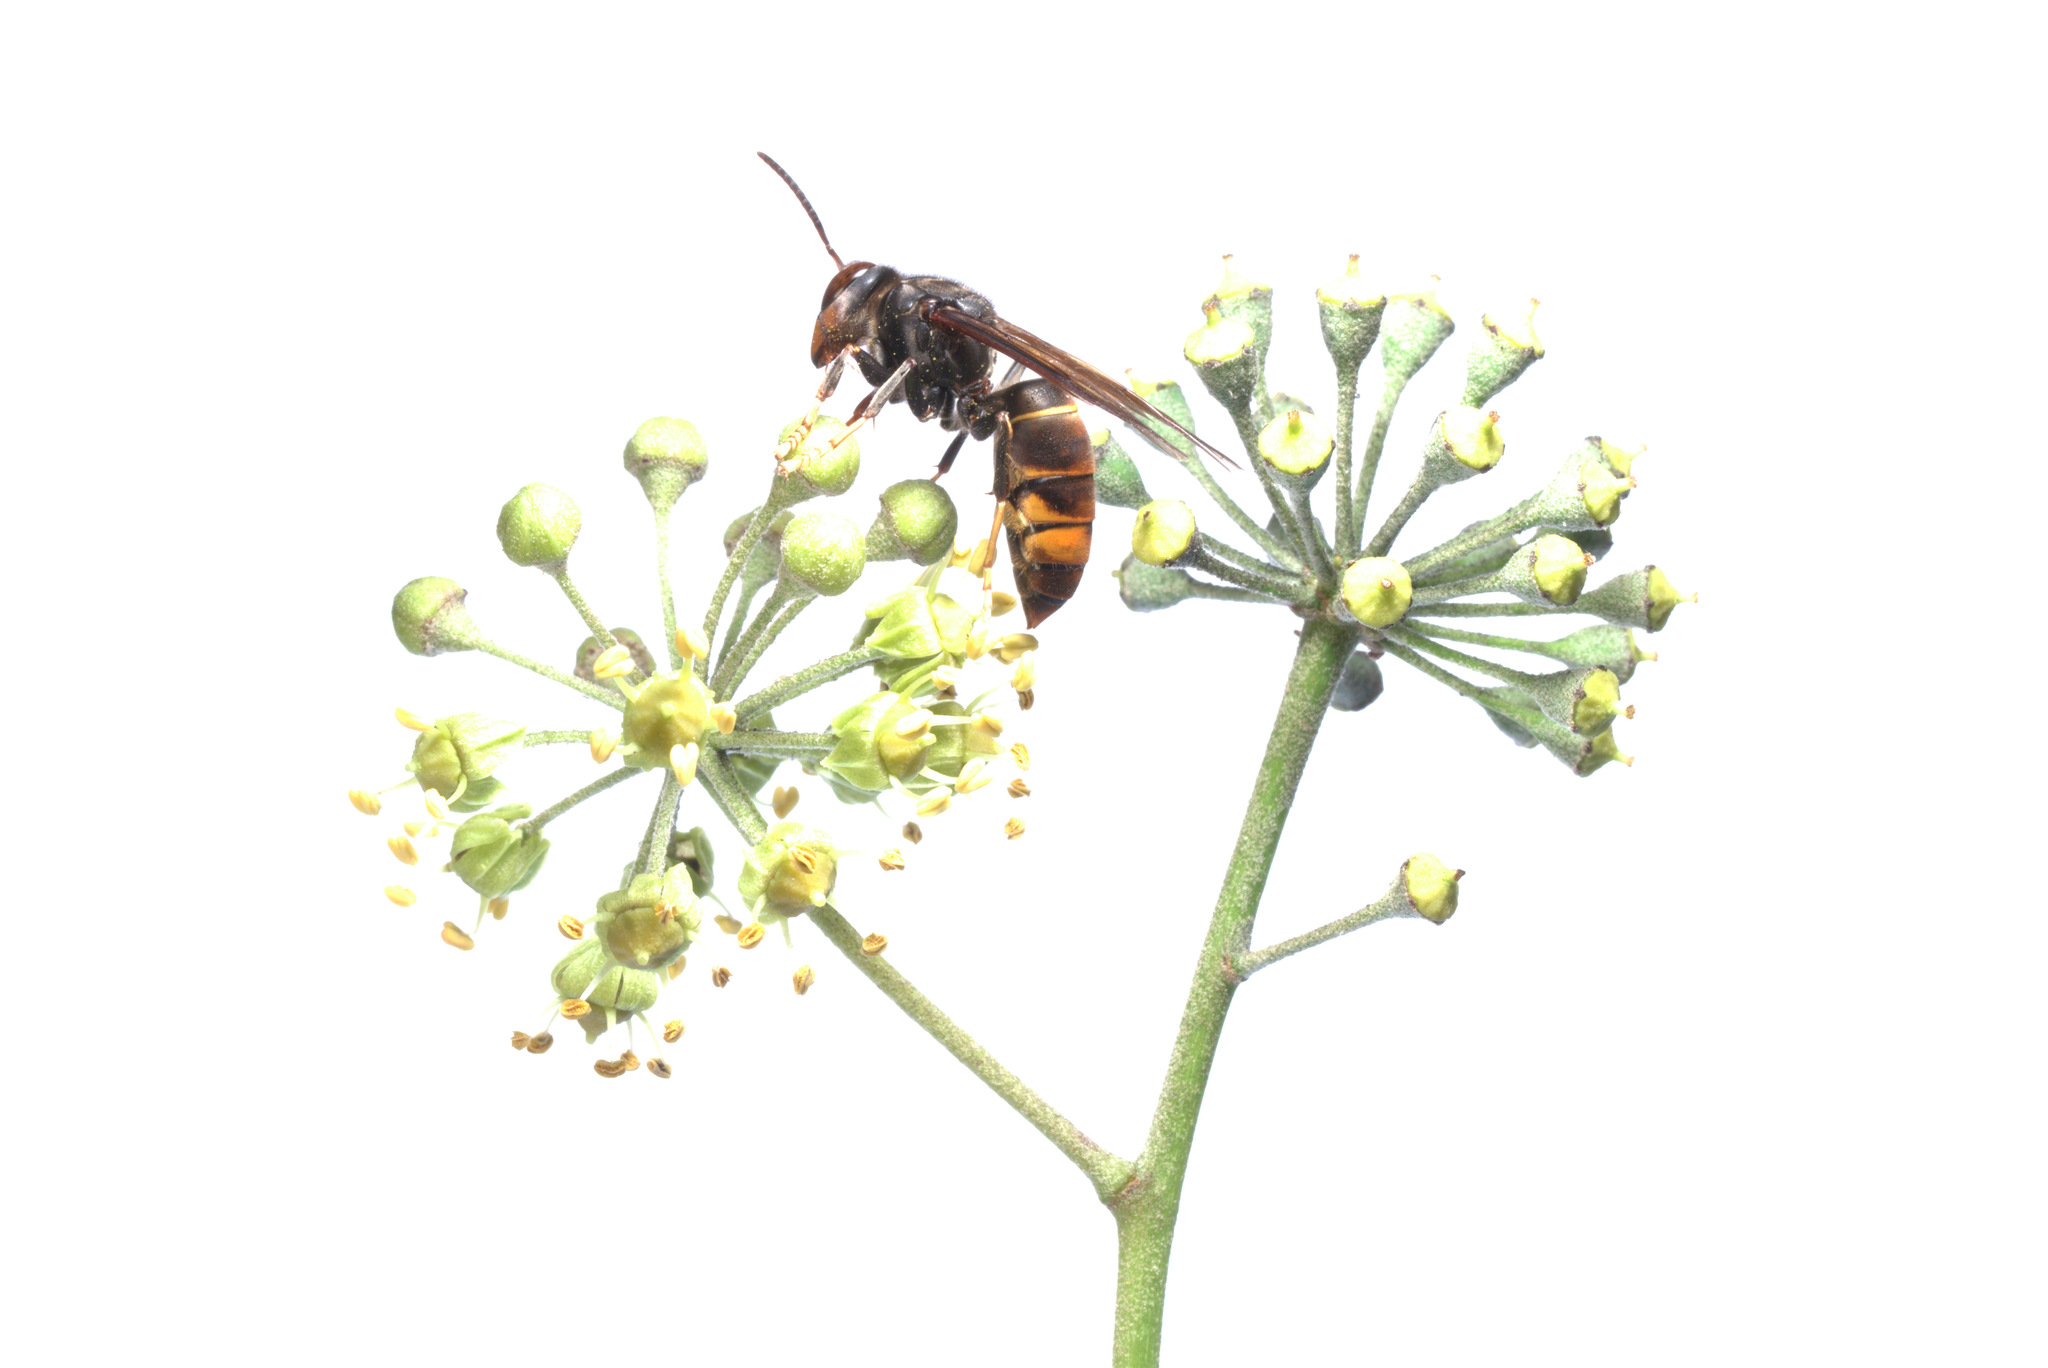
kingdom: Animalia
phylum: Arthropoda
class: Insecta
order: Hymenoptera
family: Vespidae
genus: Vespa
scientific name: Vespa velutina
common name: Asian hornet
